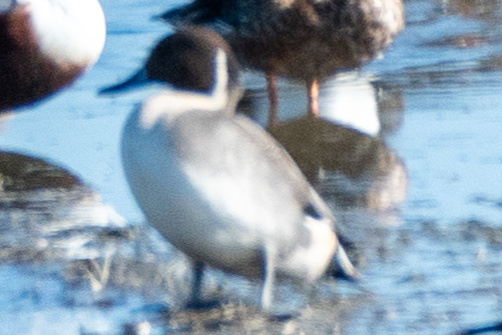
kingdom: Animalia
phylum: Chordata
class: Aves
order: Anseriformes
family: Anatidae
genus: Anas
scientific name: Anas acuta
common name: Northern pintail
